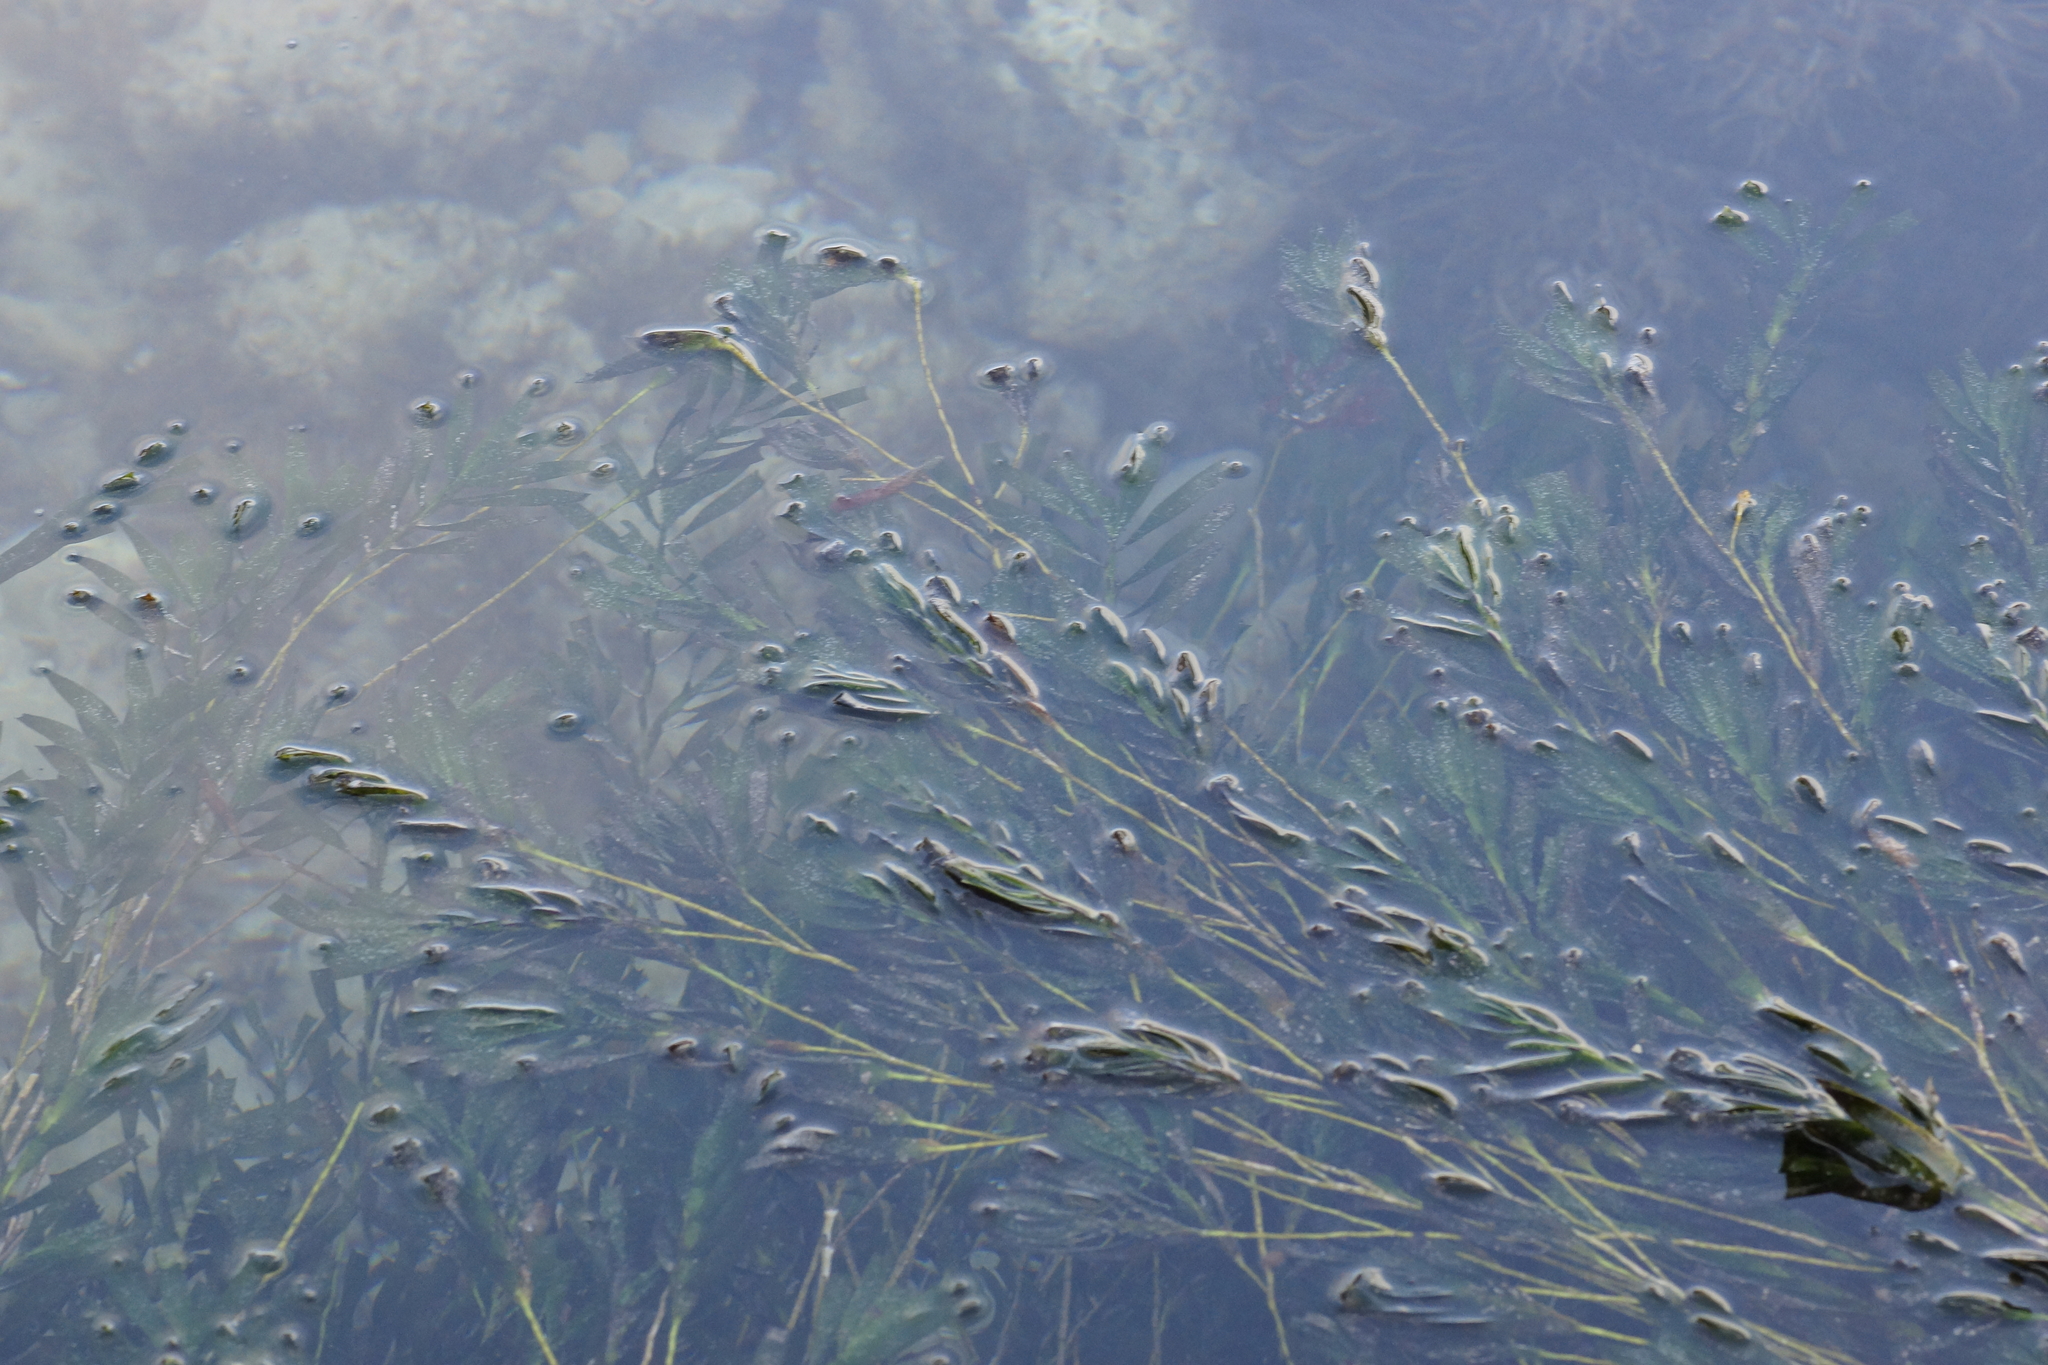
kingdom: Plantae
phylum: Tracheophyta
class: Liliopsida
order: Alismatales
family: Cymodoceaceae
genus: Amphibolis
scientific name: Amphibolis antarctica
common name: Species code: aa
